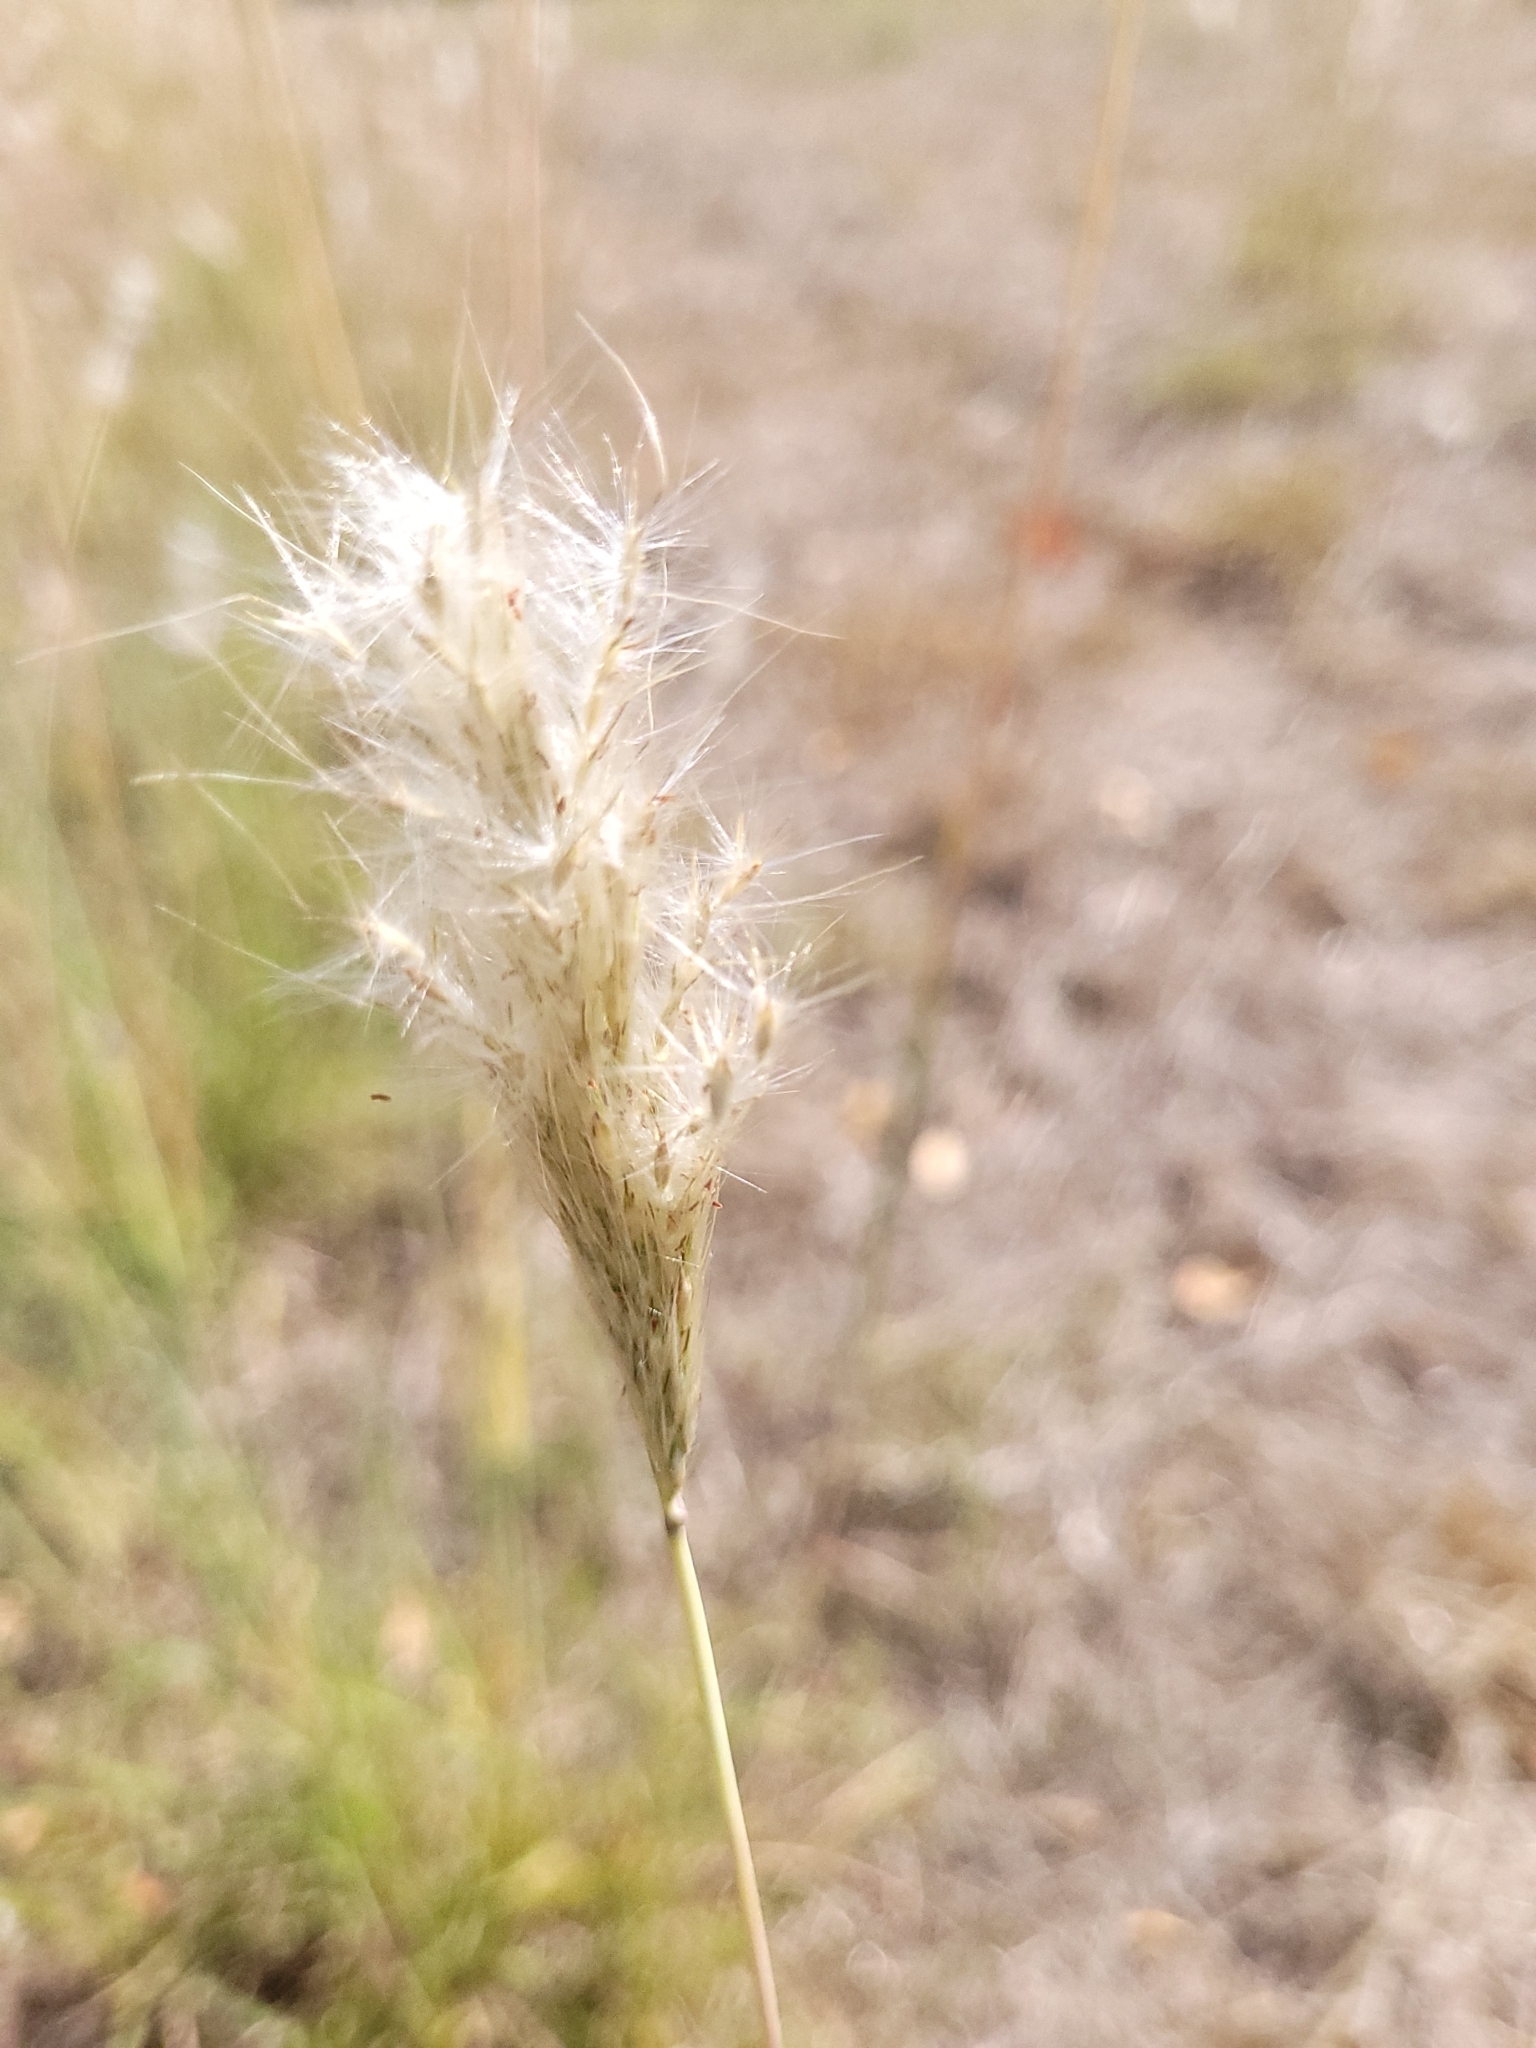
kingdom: Plantae
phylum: Tracheophyta
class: Liliopsida
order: Poales
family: Poaceae
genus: Bothriochloa
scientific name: Bothriochloa barbinodis
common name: Cane bluestem
